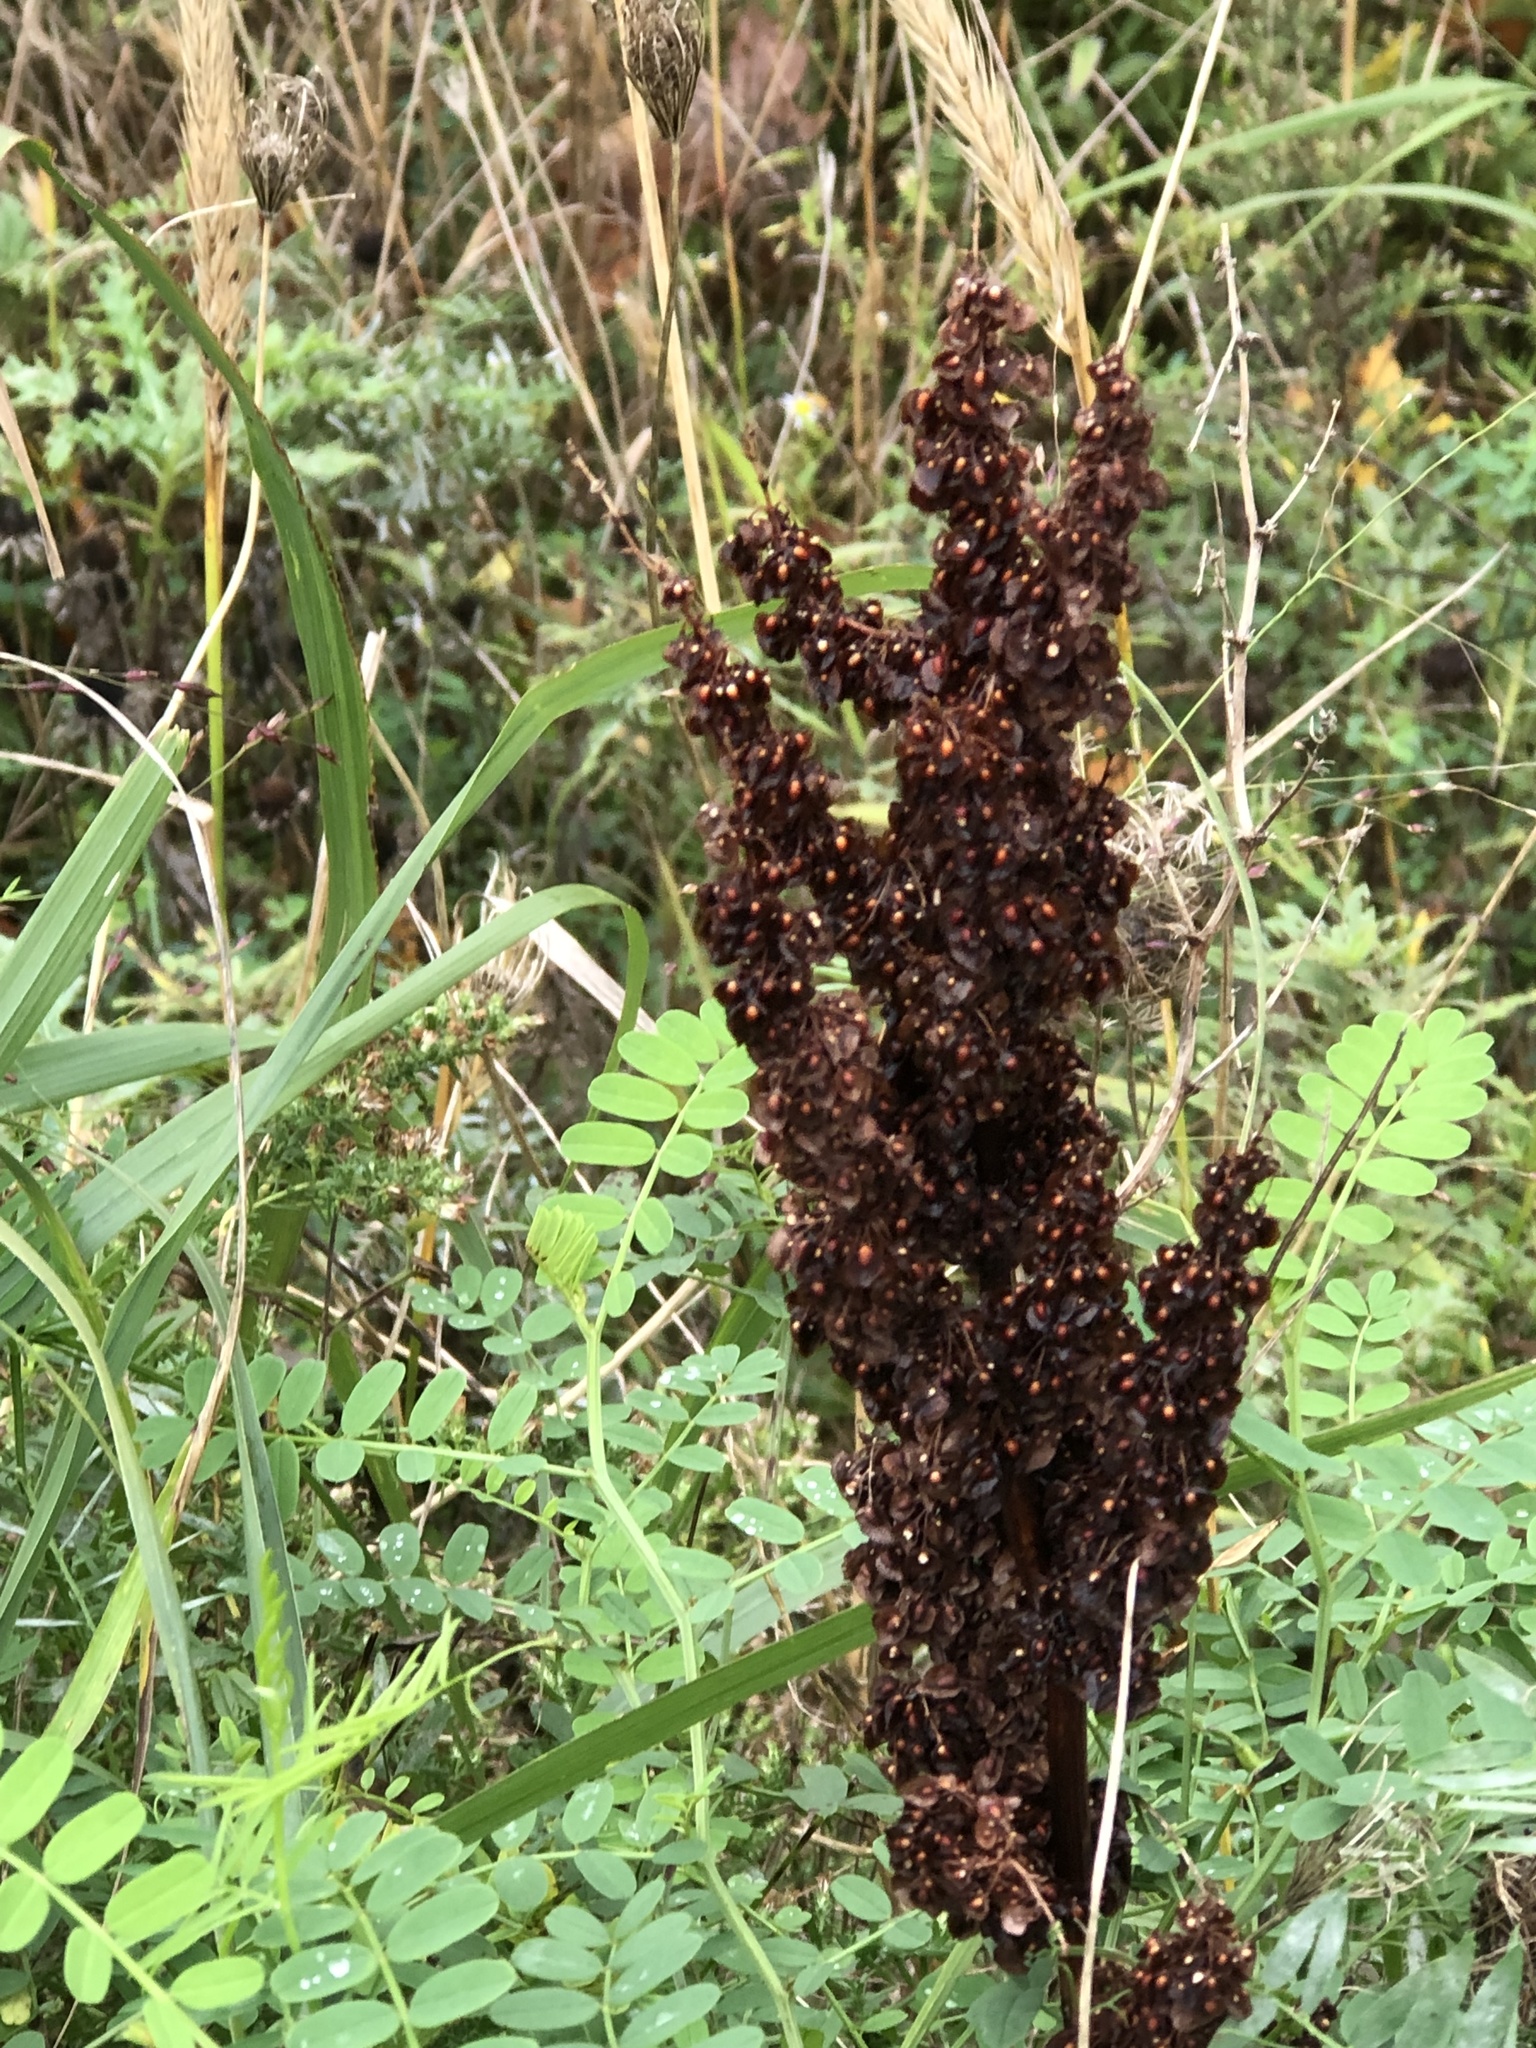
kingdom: Plantae
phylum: Tracheophyta
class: Magnoliopsida
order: Caryophyllales
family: Polygonaceae
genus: Rumex
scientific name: Rumex crispus
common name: Curled dock
